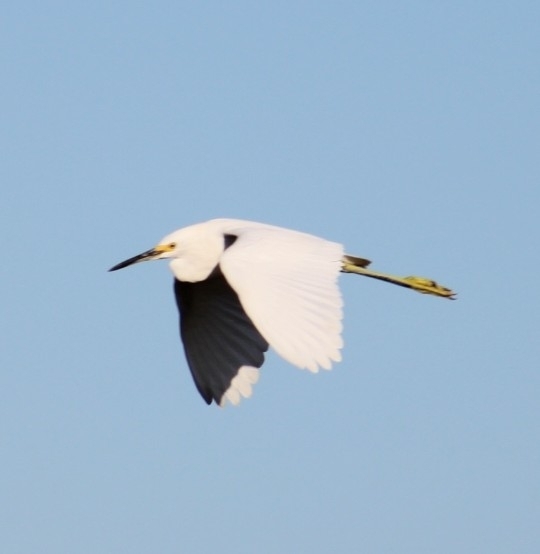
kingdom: Animalia
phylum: Chordata
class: Aves
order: Pelecaniformes
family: Ardeidae
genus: Egretta
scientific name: Egretta thula
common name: Snowy egret
